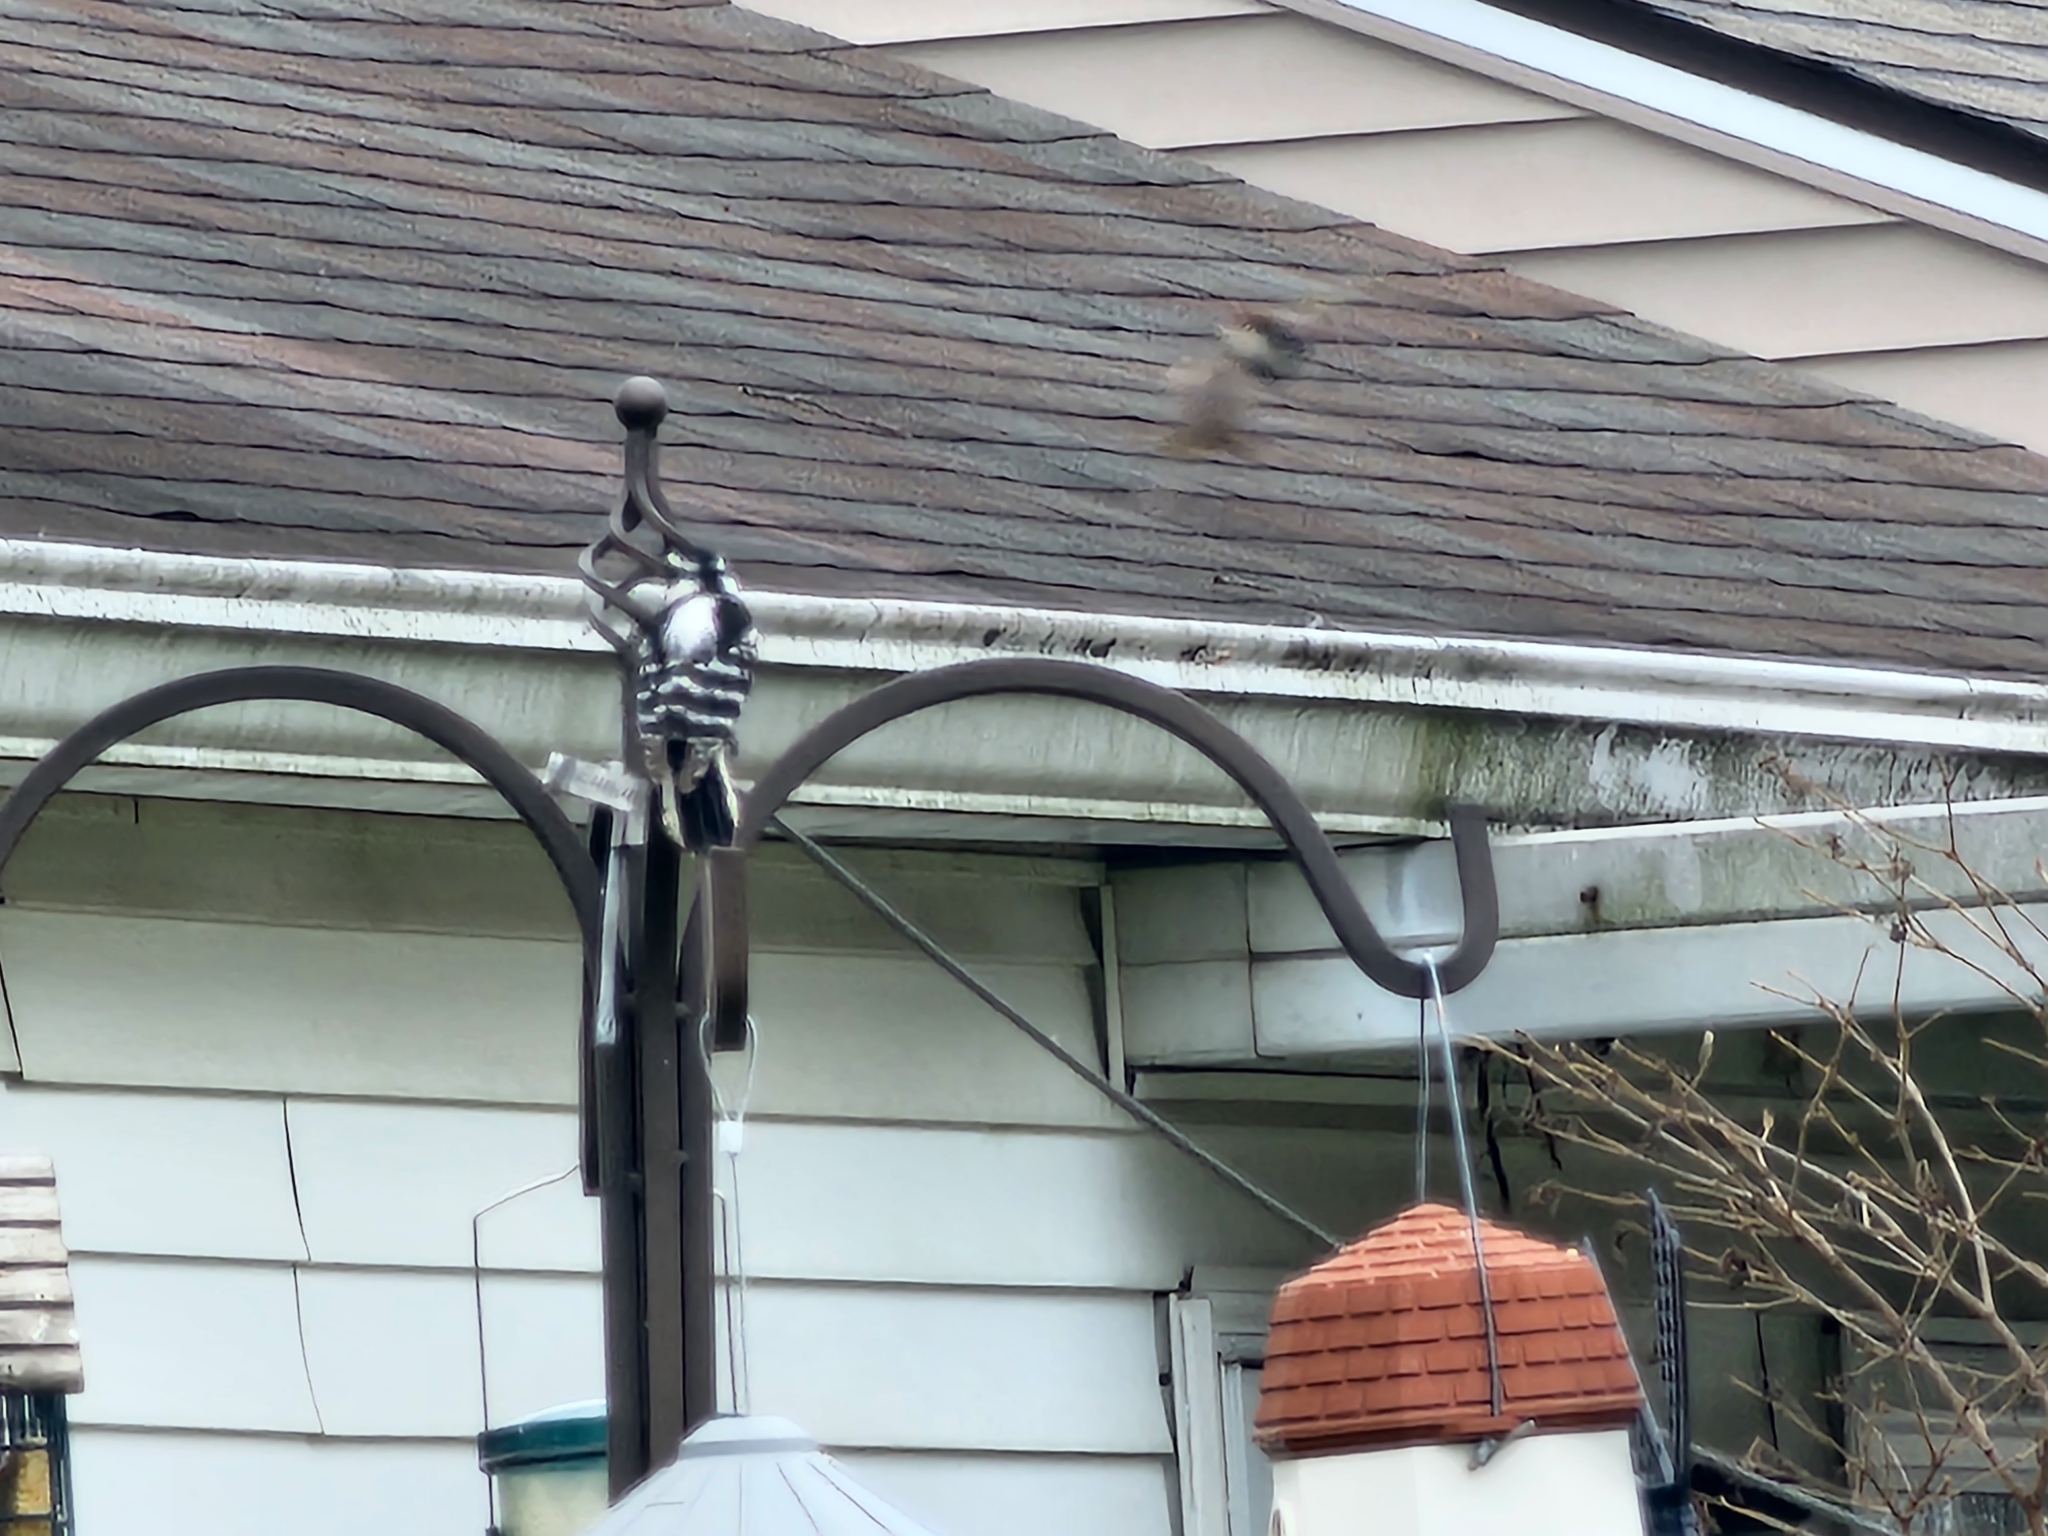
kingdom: Animalia
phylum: Chordata
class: Aves
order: Piciformes
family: Picidae
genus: Dryobates
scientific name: Dryobates pubescens
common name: Downy woodpecker
